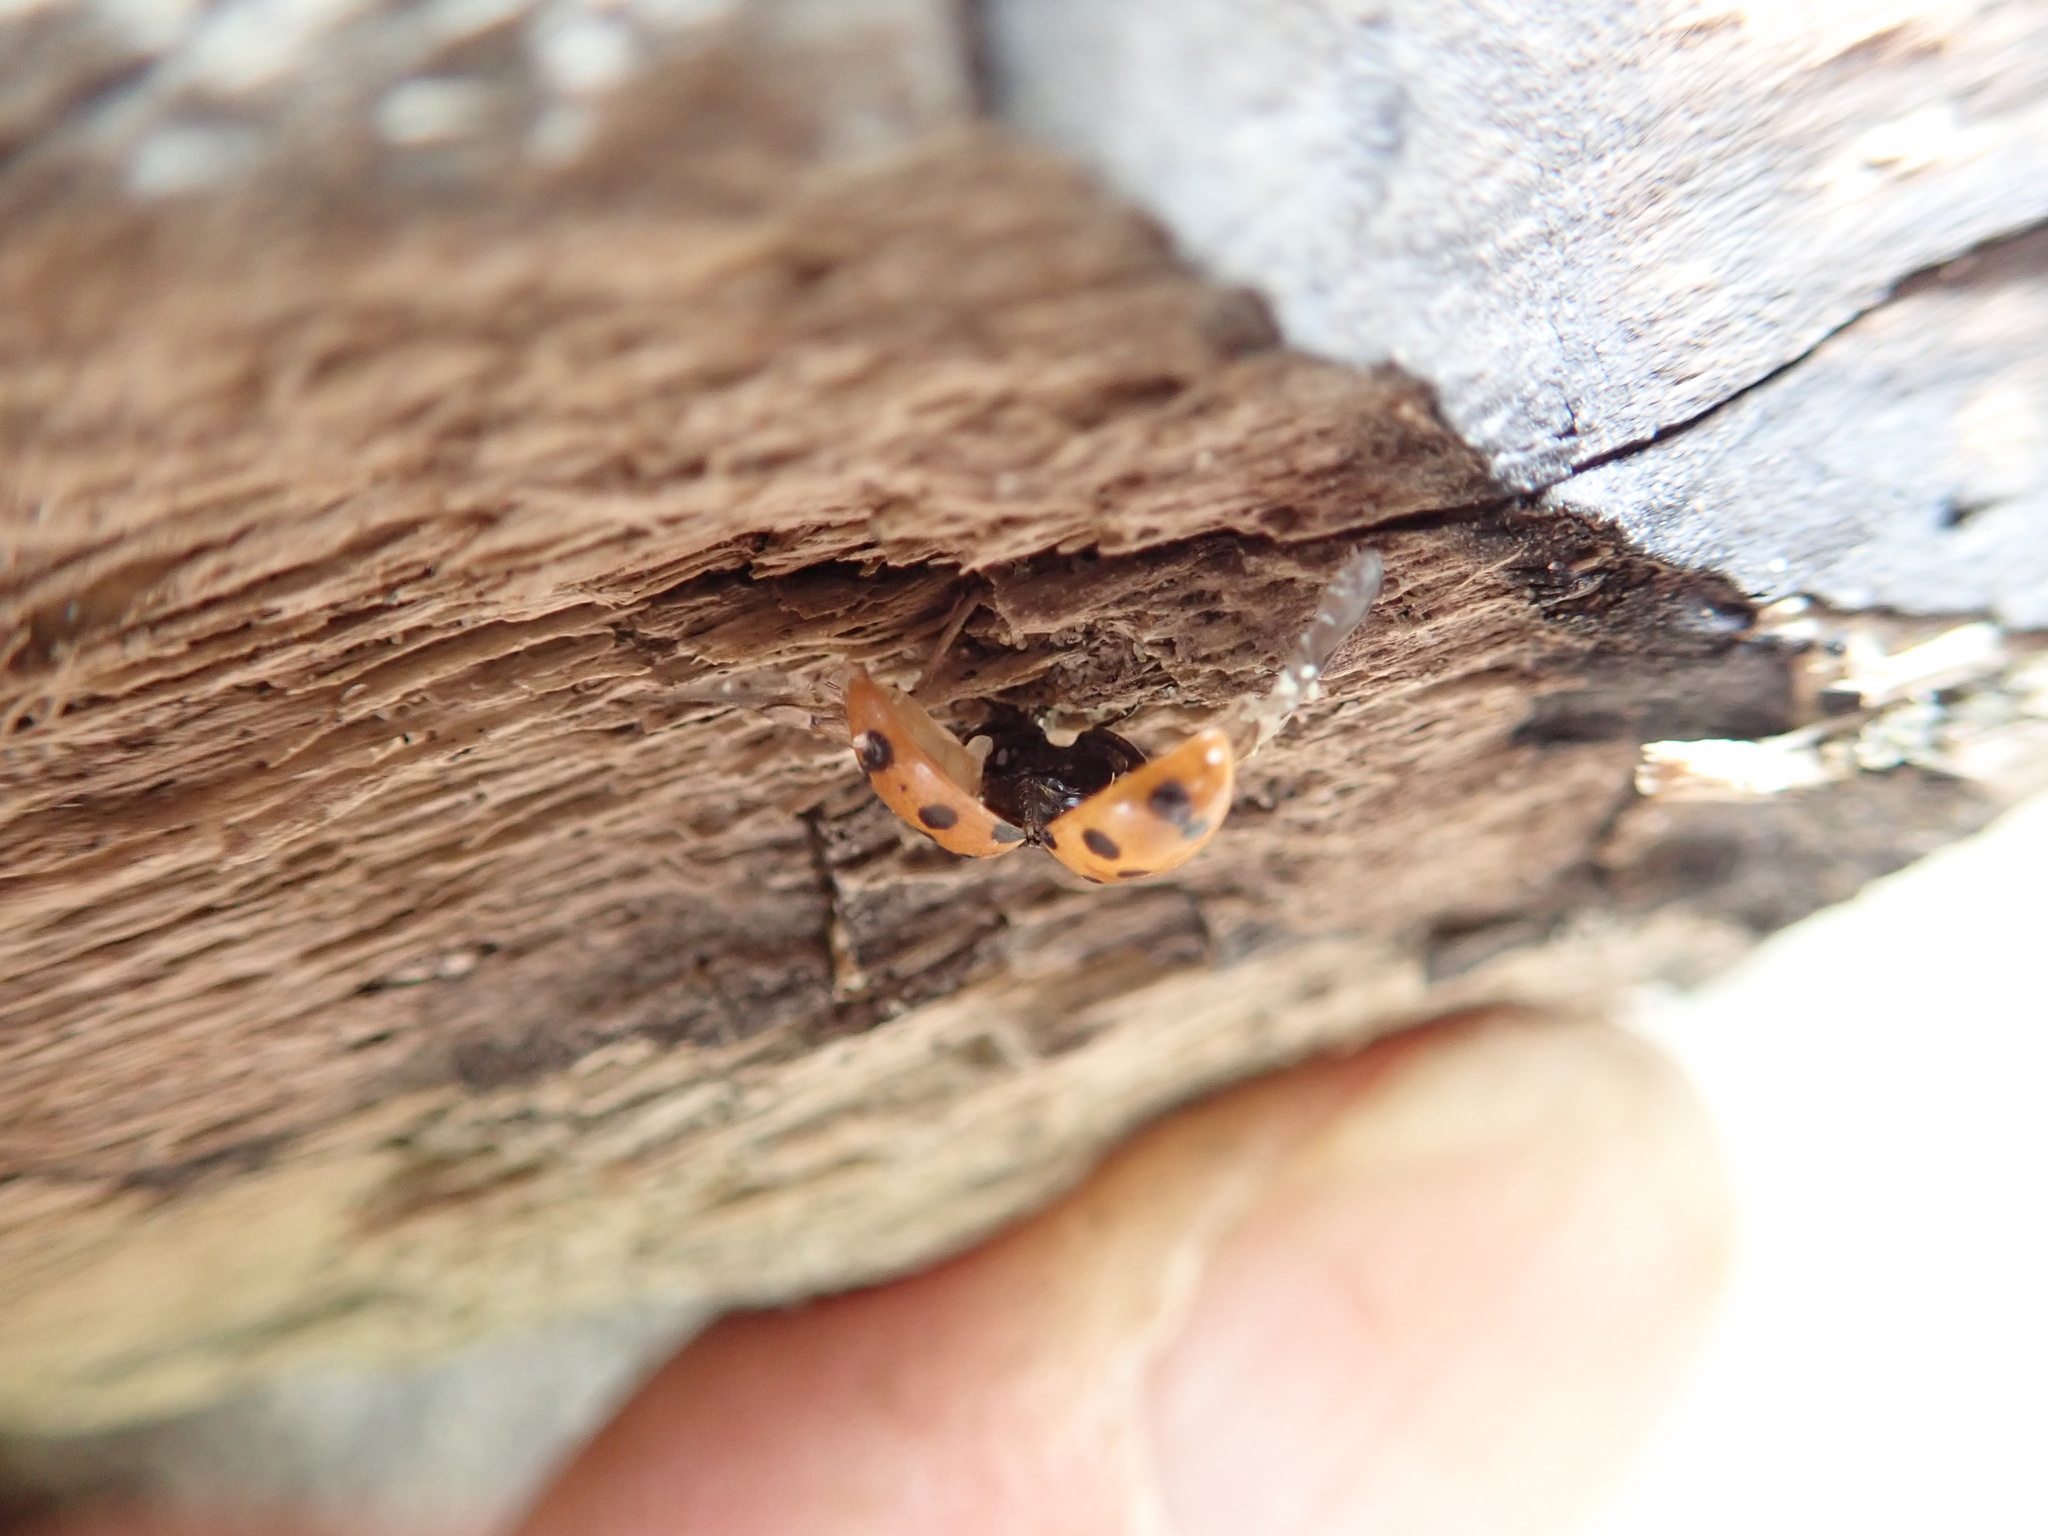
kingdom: Animalia
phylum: Arthropoda
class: Insecta
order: Coleoptera
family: Coccinellidae
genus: Coccinella
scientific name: Coccinella undecimpunctata
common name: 11-spot ladybird
